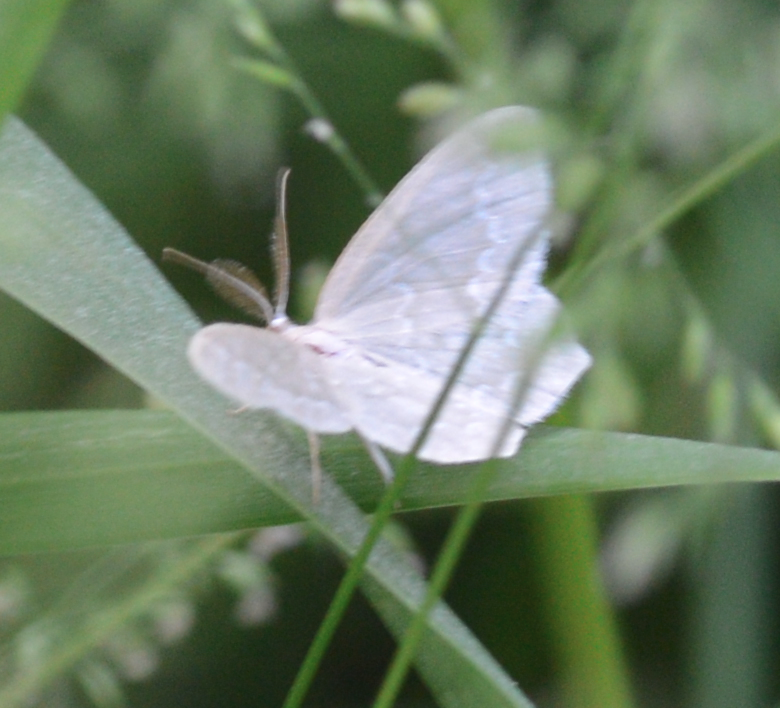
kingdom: Animalia
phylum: Arthropoda
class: Insecta
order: Lepidoptera
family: Geometridae
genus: Jodis
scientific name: Jodis putata
